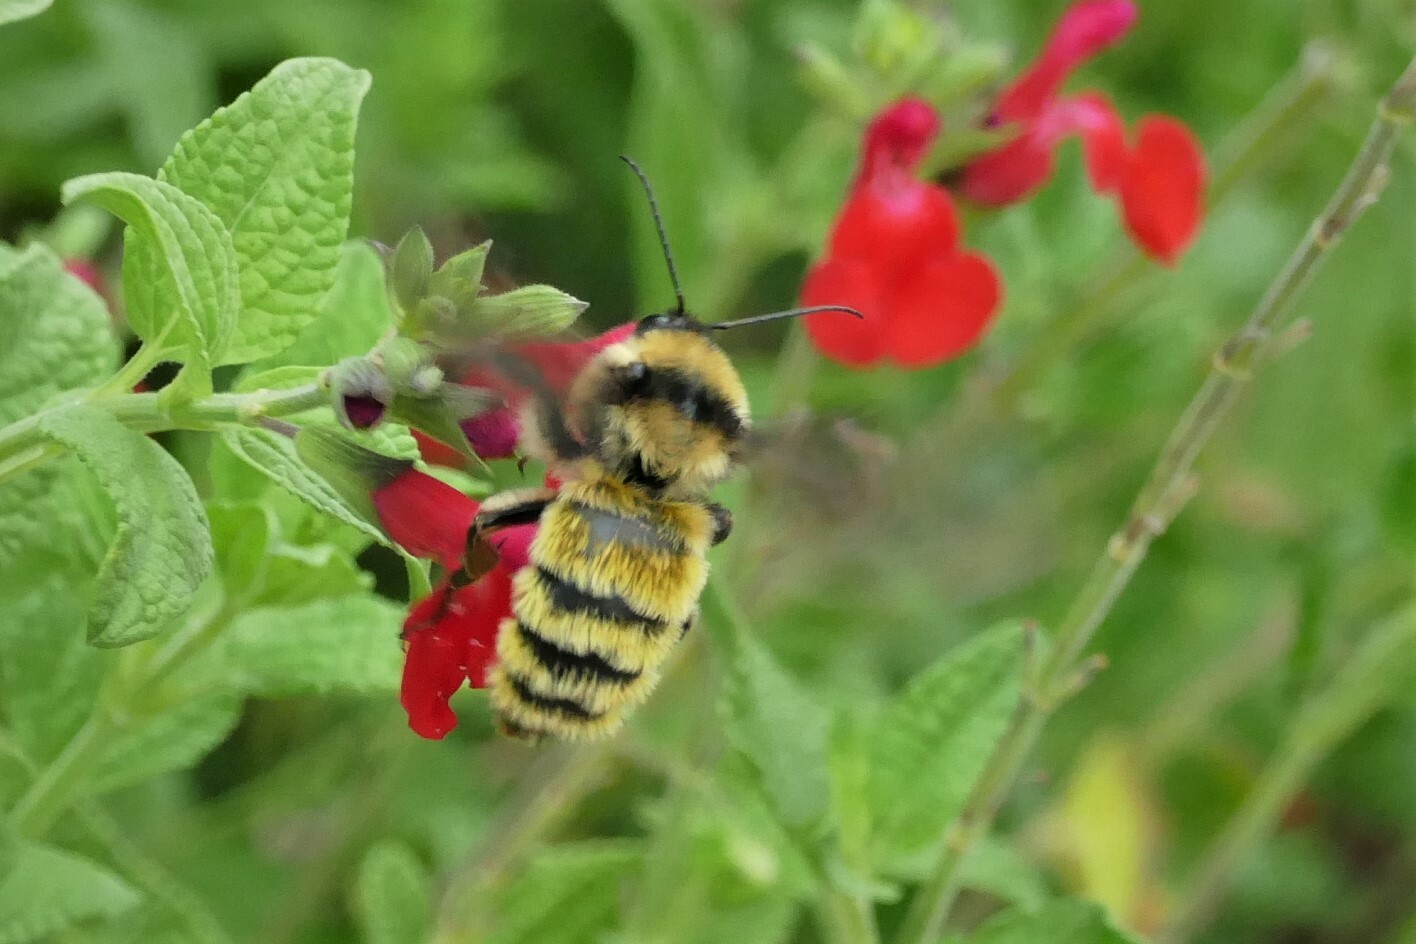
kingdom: Animalia
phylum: Arthropoda
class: Insecta
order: Hymenoptera
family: Apidae
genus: Bombus
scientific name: Bombus pensylvanicus
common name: Bumble bee
